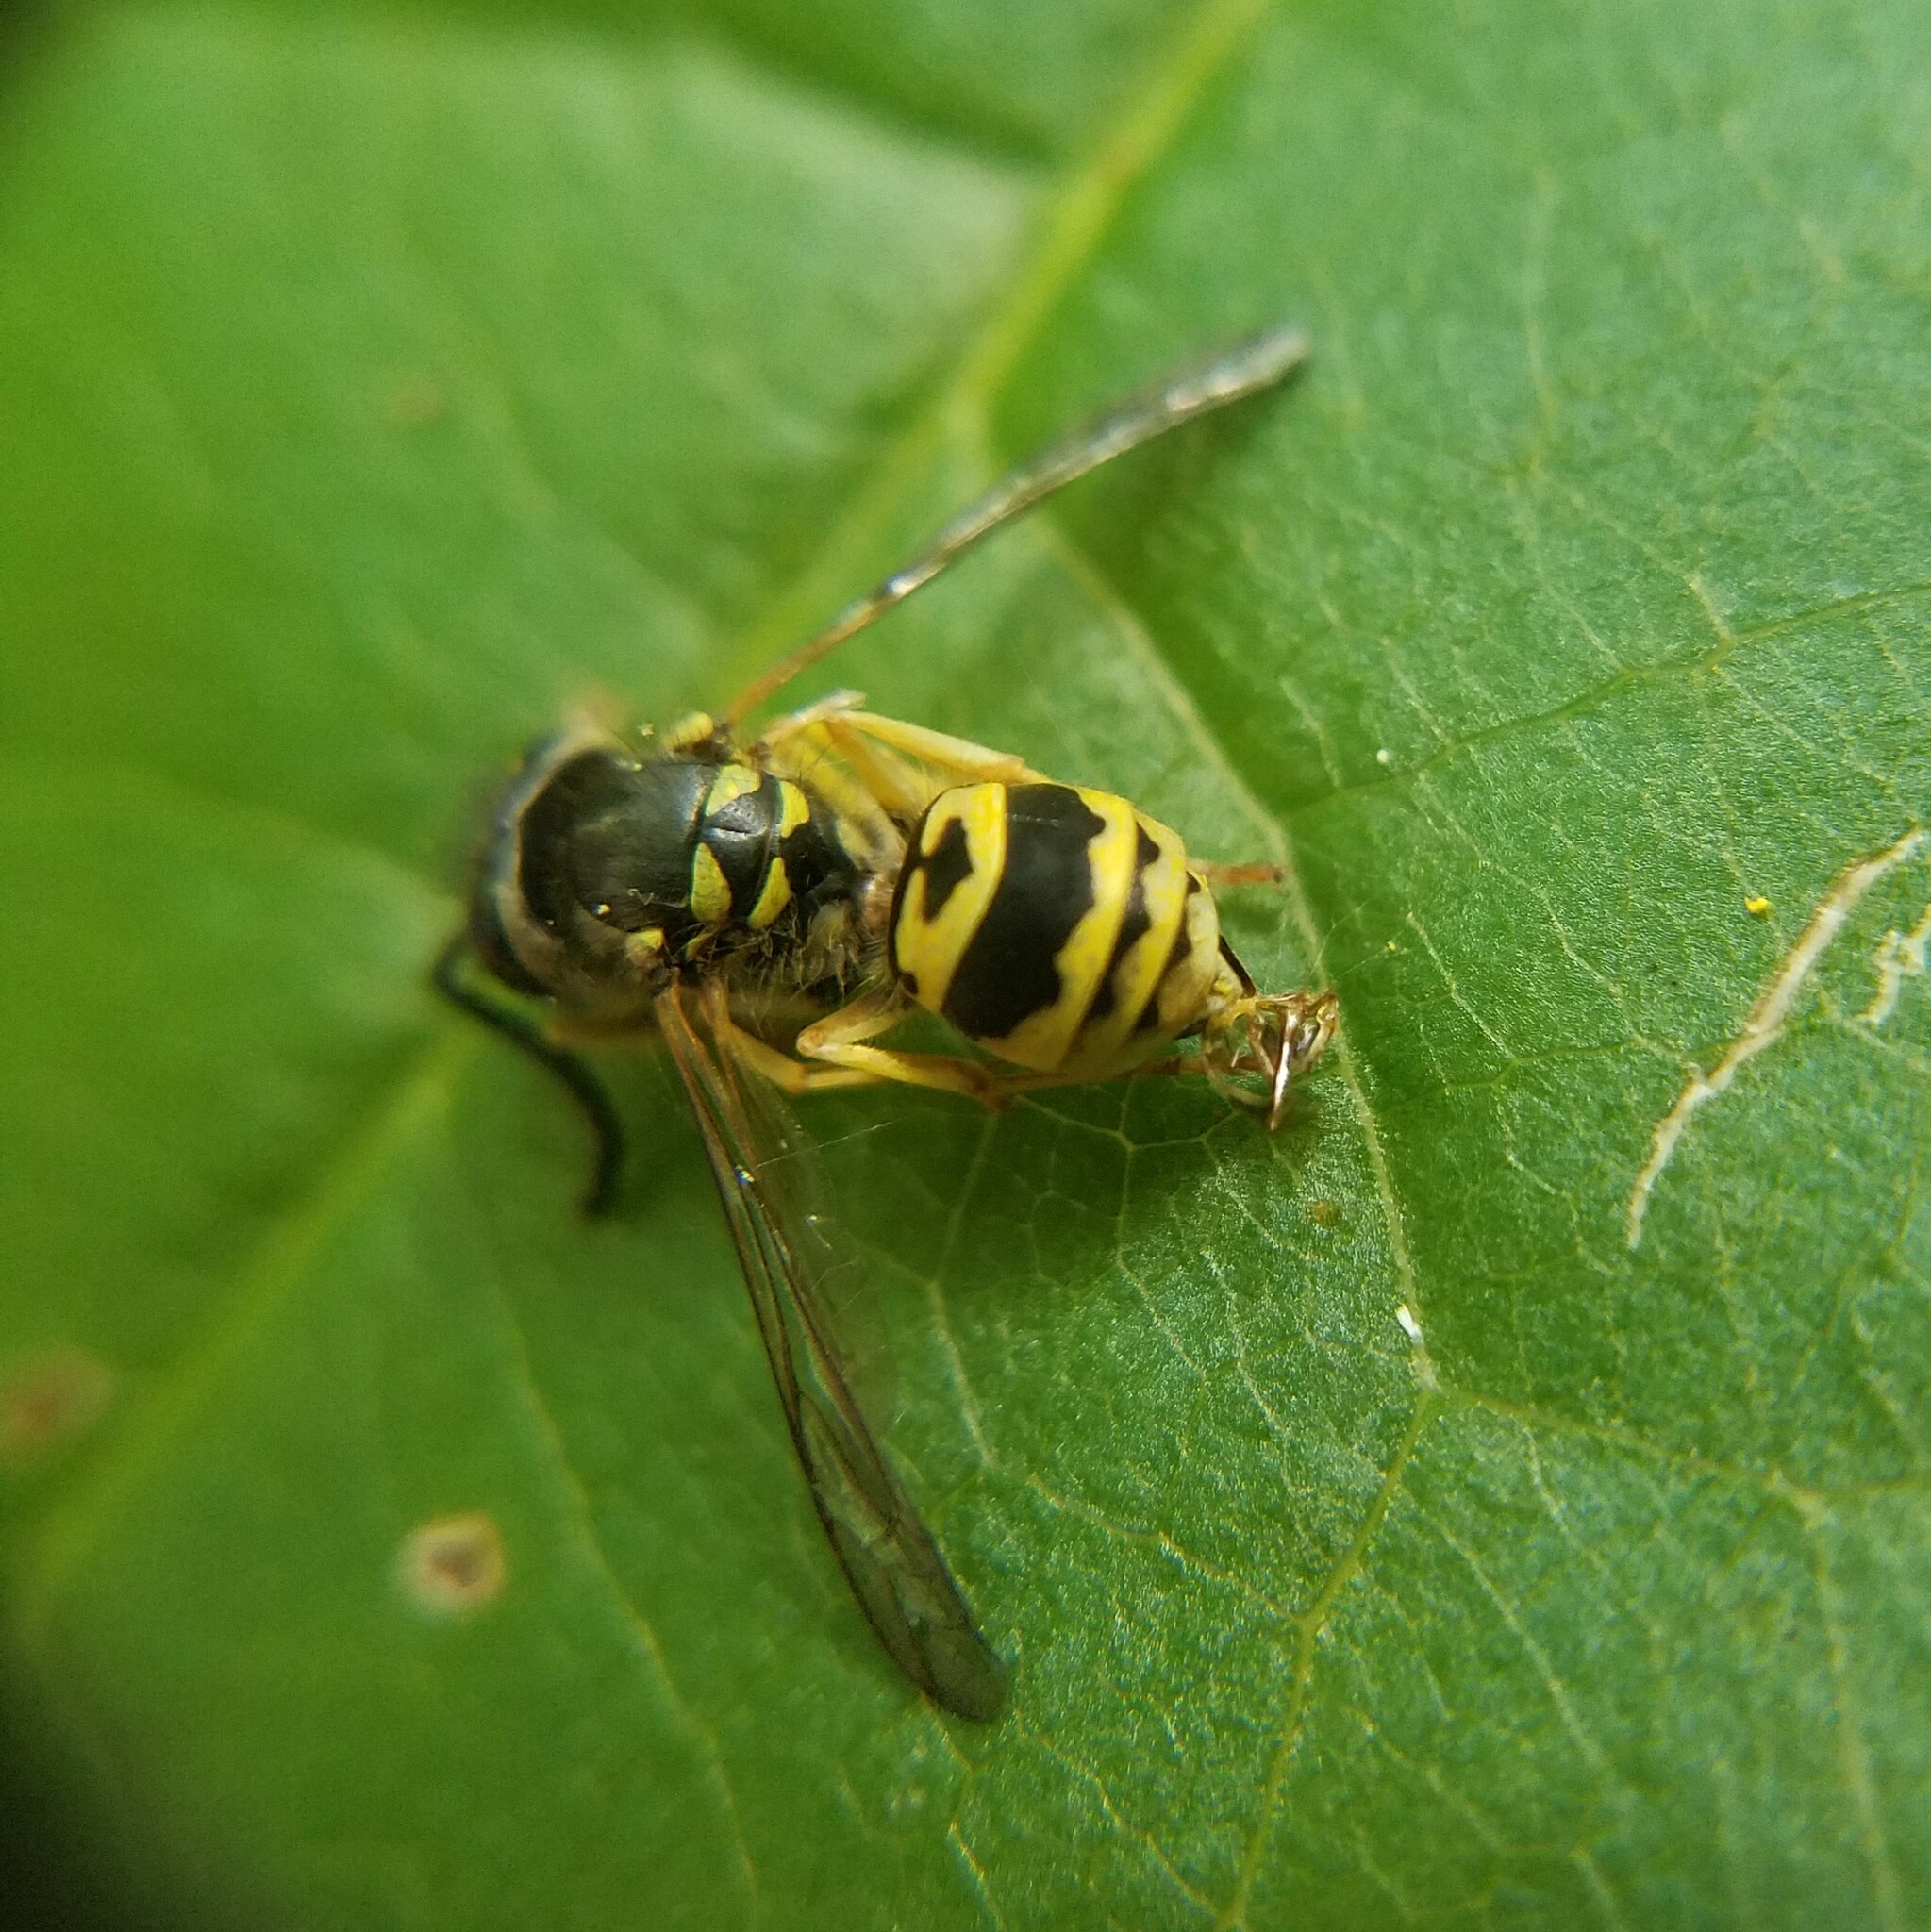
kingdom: Animalia
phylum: Arthropoda
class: Insecta
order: Hymenoptera
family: Vespidae
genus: Vespula
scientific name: Vespula maculifrons
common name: Eastern yellowjacket
